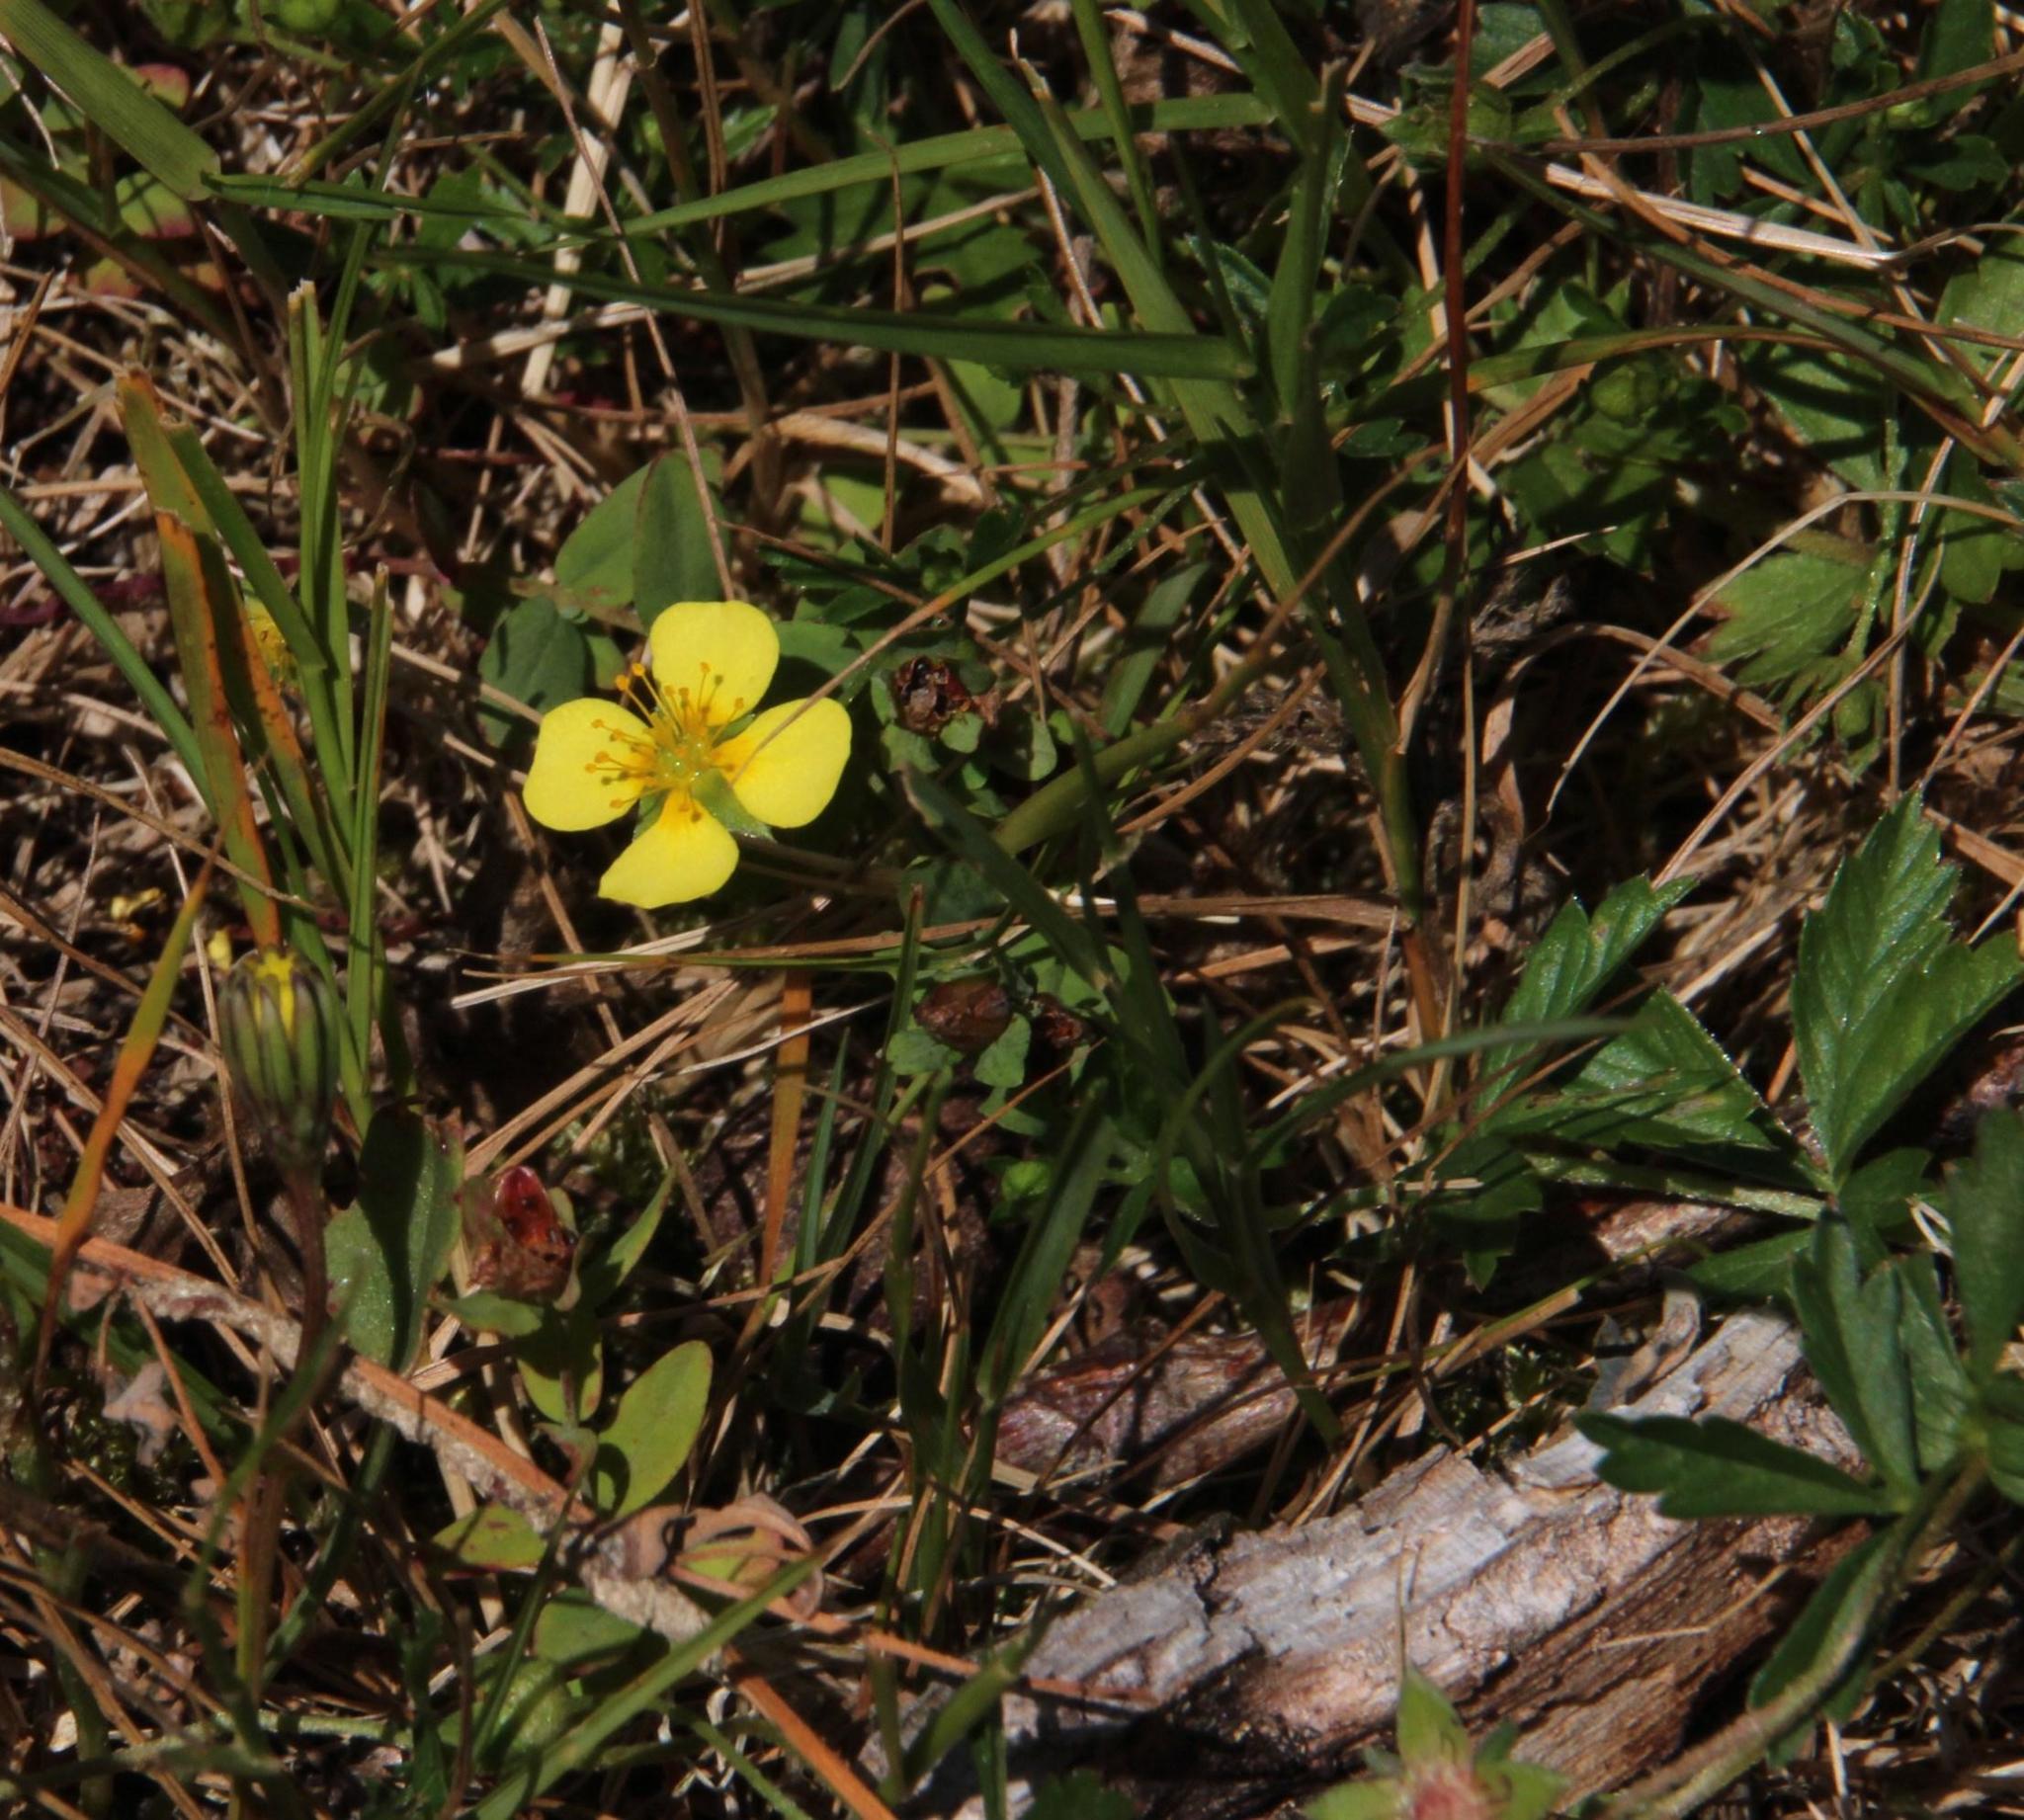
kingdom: Plantae
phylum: Tracheophyta
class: Magnoliopsida
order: Rosales
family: Rosaceae
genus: Potentilla
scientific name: Potentilla erecta
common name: Tormentil
